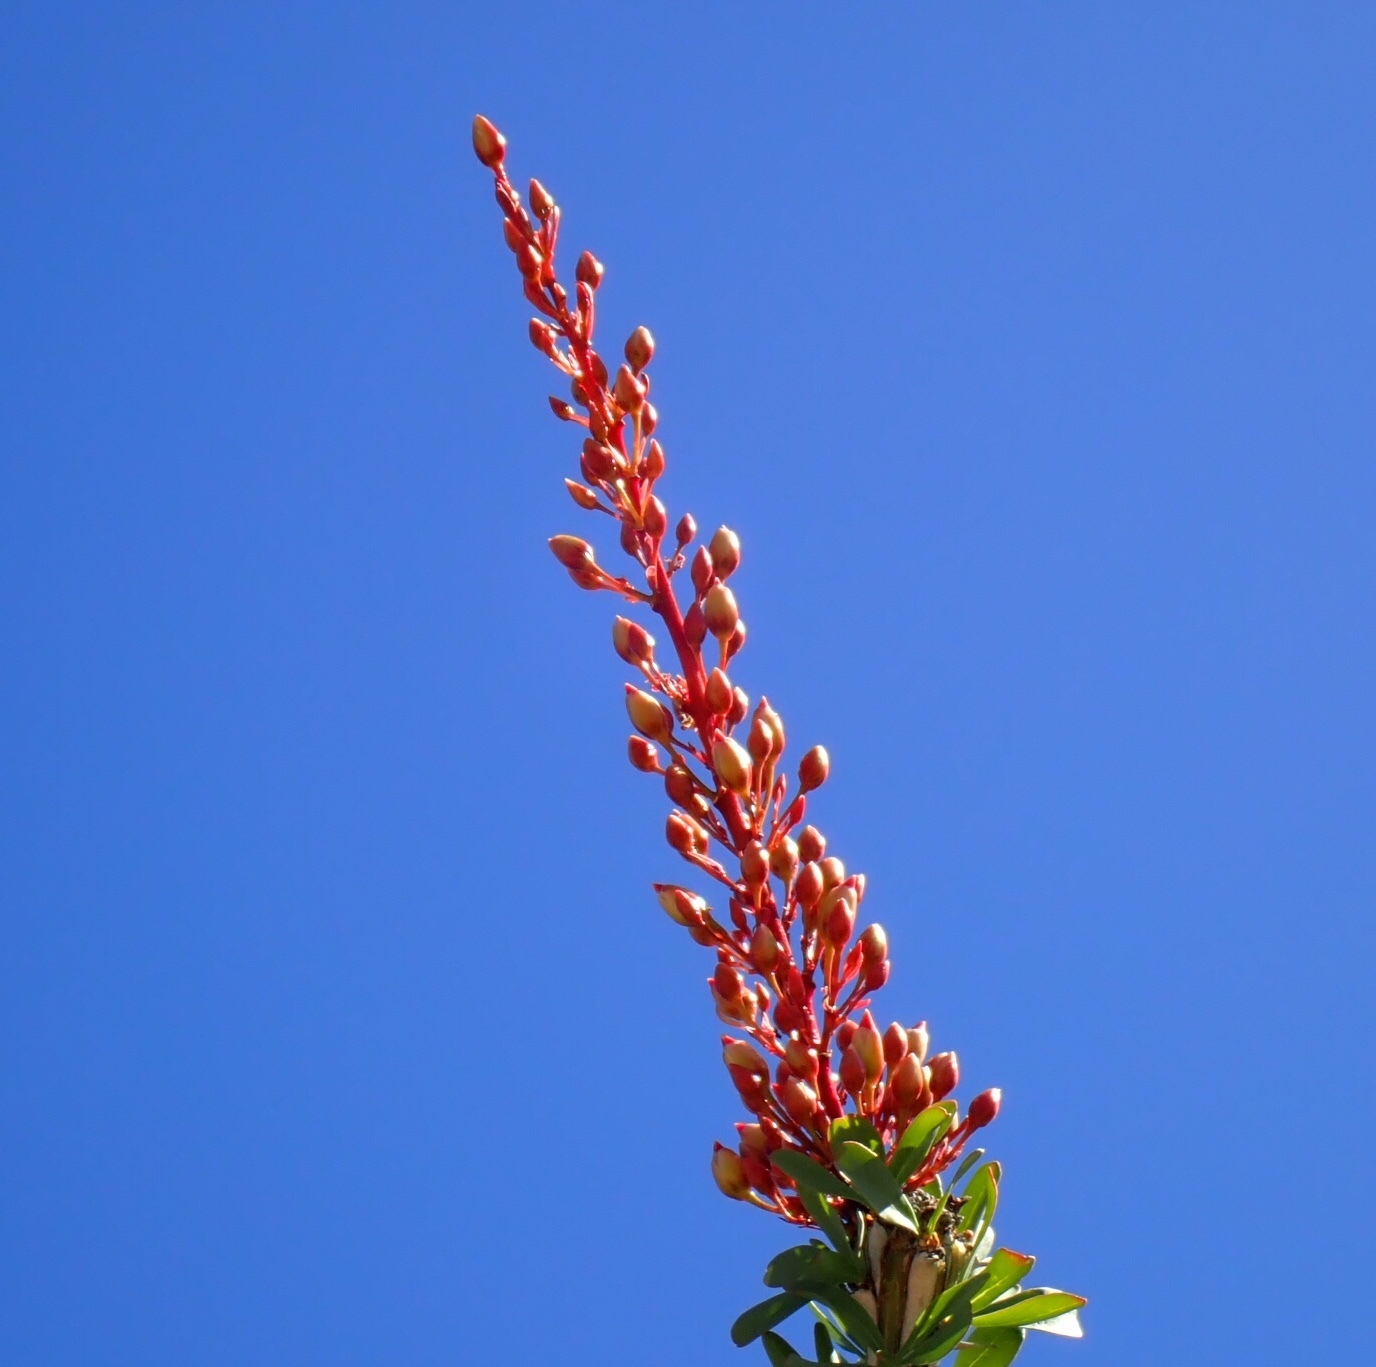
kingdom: Plantae
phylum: Tracheophyta
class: Magnoliopsida
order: Ericales
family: Fouquieriaceae
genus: Fouquieria
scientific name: Fouquieria splendens
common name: Vine-cactus
